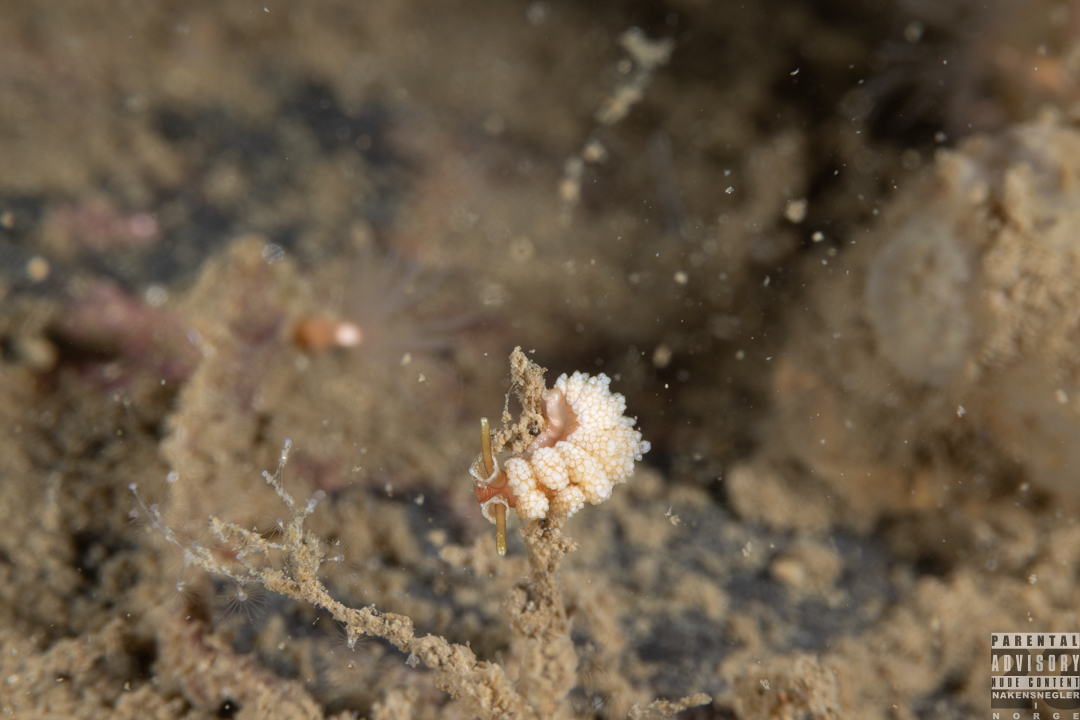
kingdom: Animalia
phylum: Mollusca
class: Gastropoda
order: Nudibranchia
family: Dotidae
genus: Doto
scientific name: Doto fragilis
